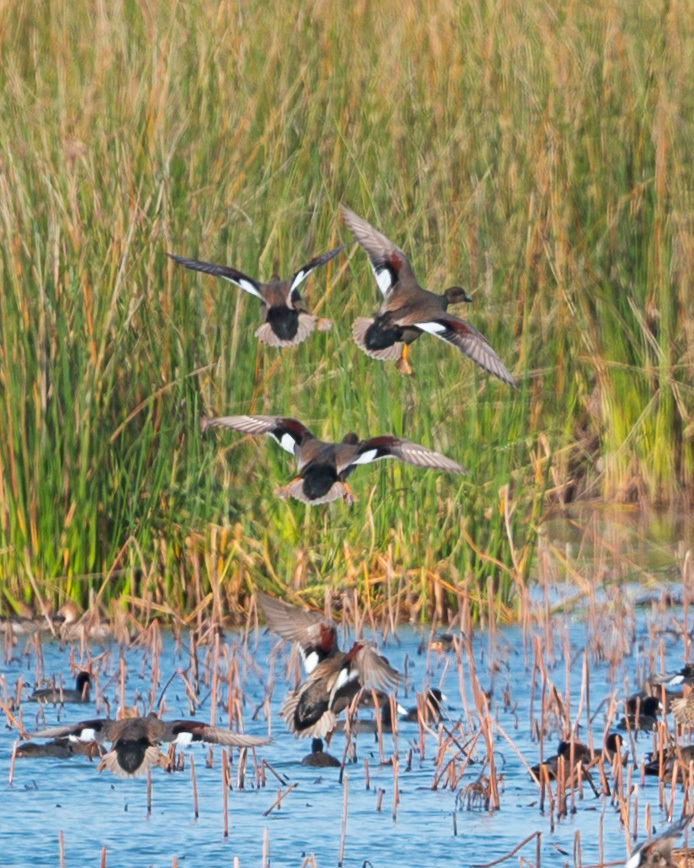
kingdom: Animalia
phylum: Chordata
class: Aves
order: Anseriformes
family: Anatidae
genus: Mareca
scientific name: Mareca strepera
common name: Gadwall
